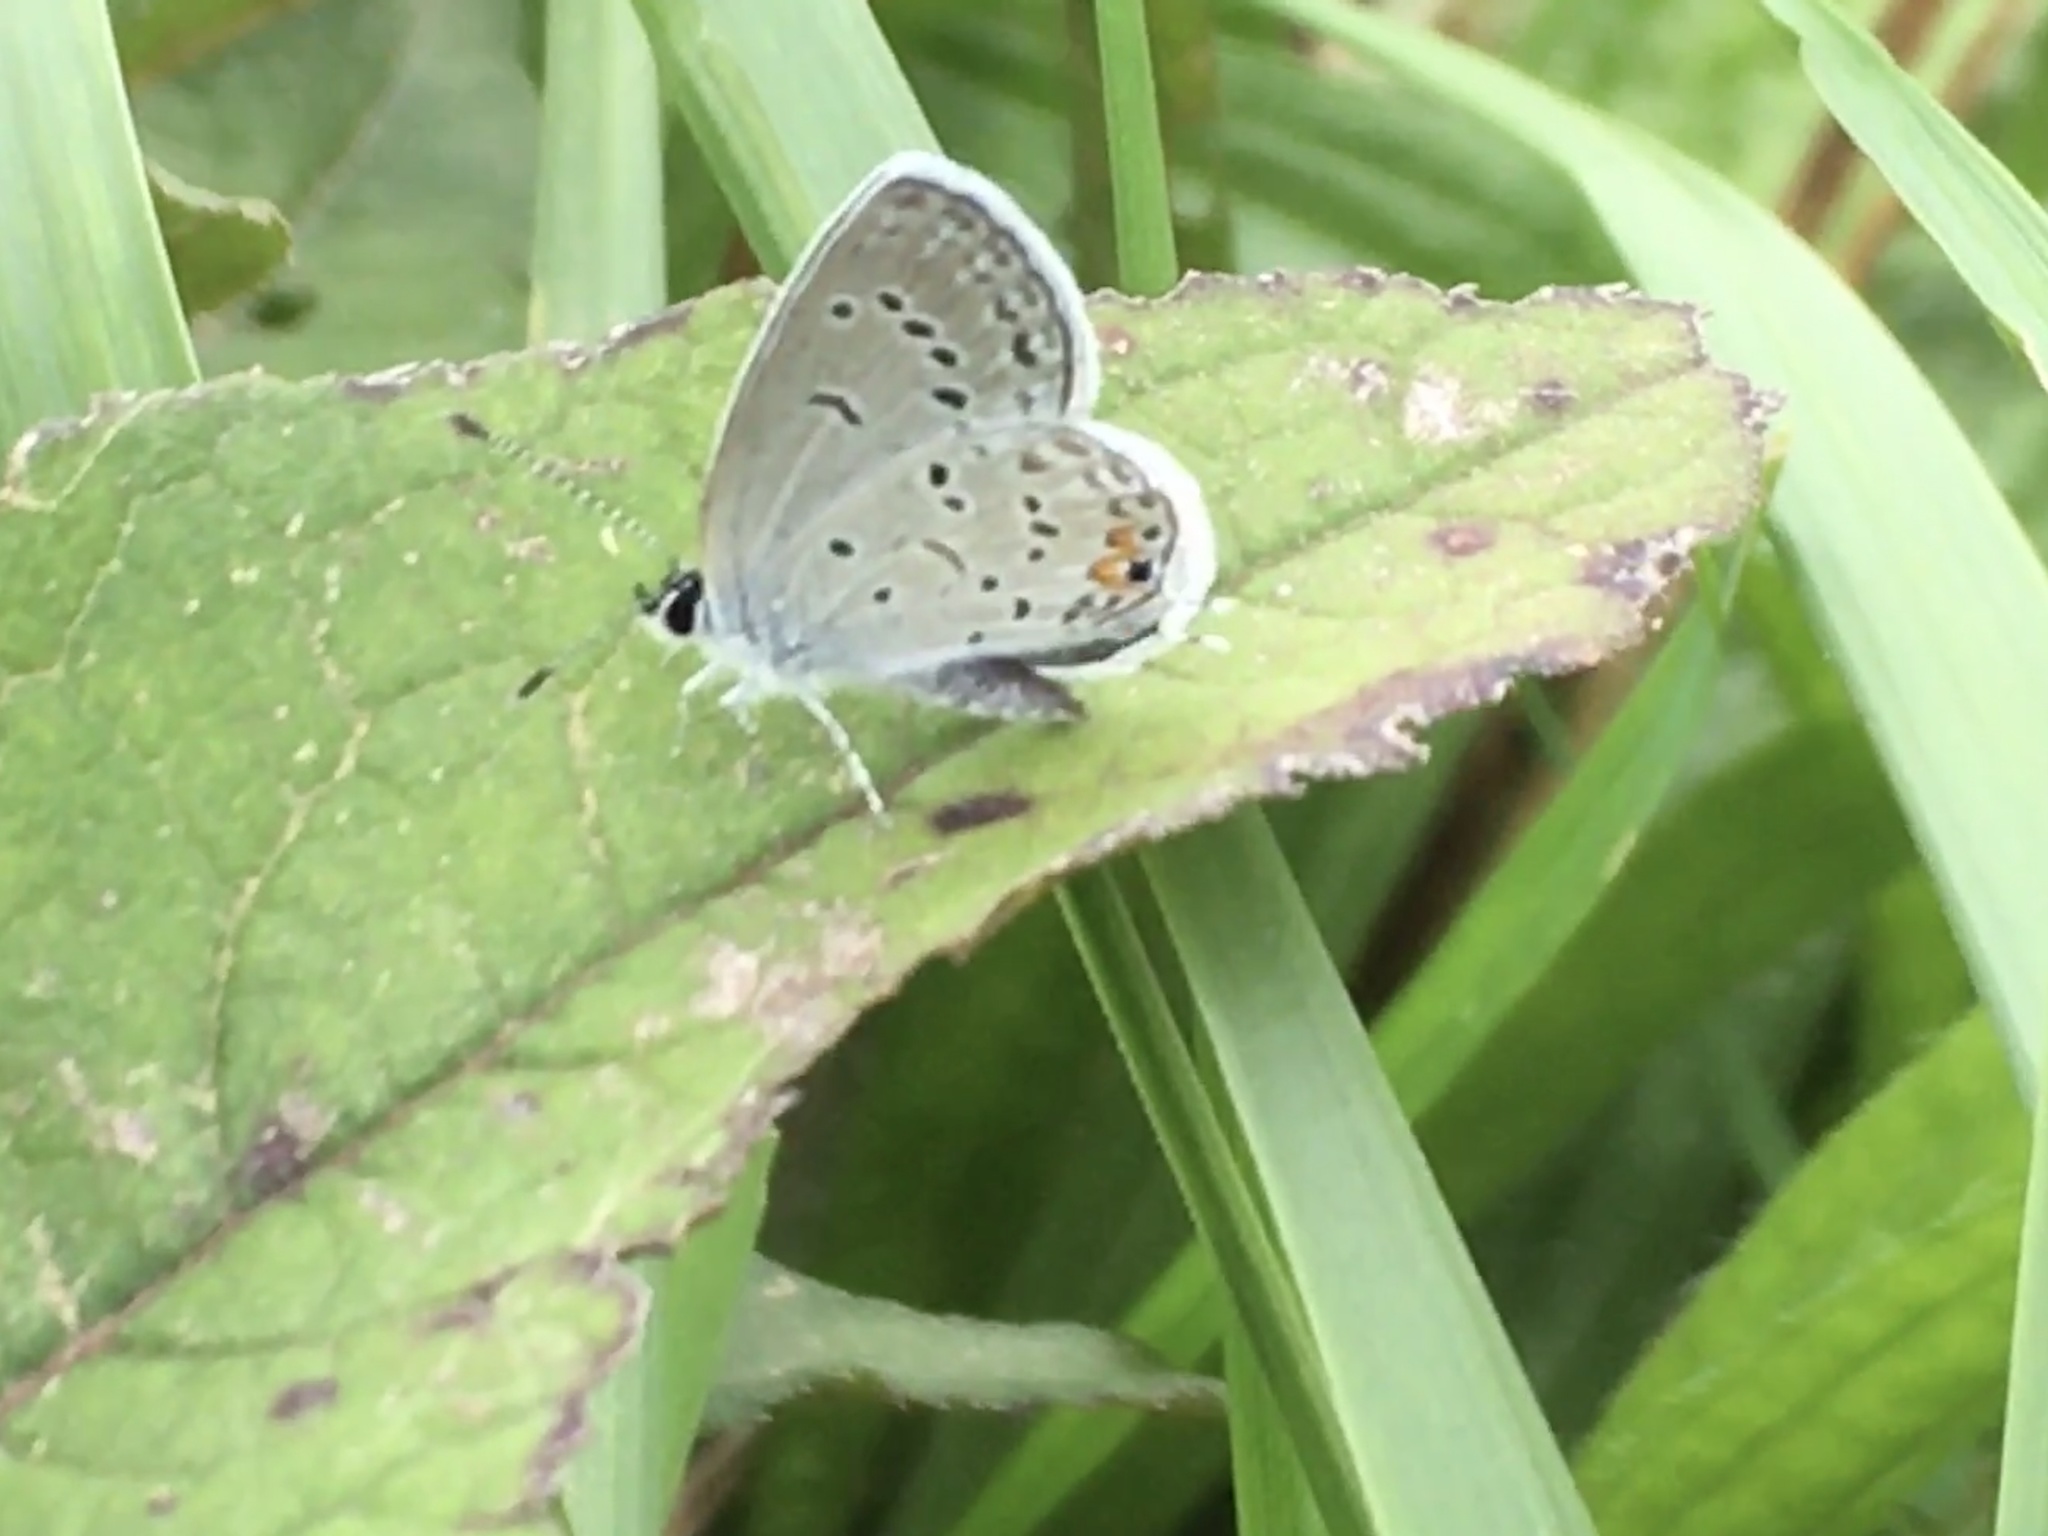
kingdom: Animalia
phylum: Arthropoda
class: Insecta
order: Lepidoptera
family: Lycaenidae
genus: Elkalyce
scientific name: Elkalyce comyntas
